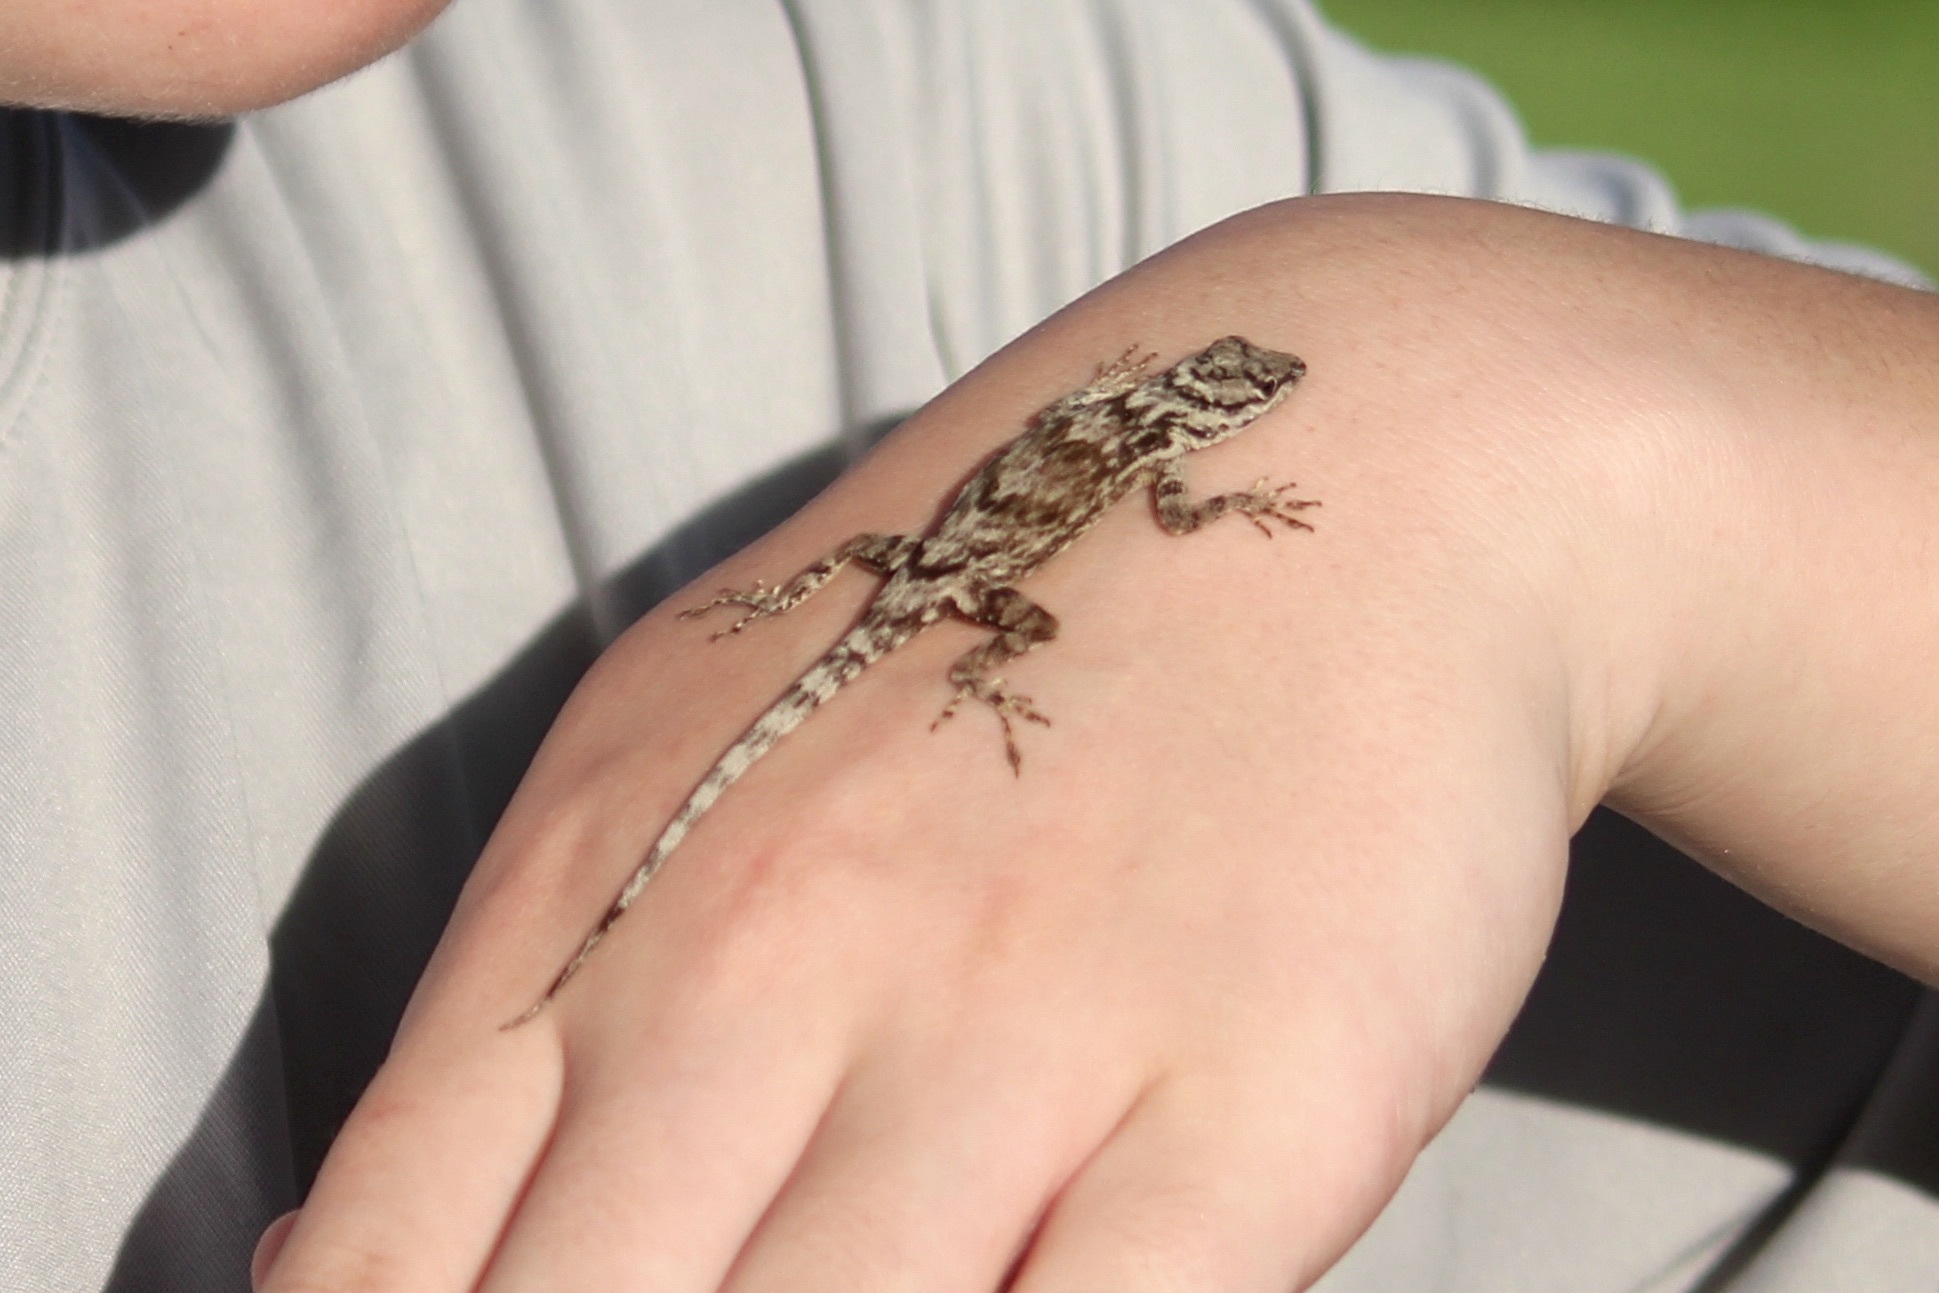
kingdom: Animalia
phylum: Chordata
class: Squamata
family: Dactyloidae
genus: Anolis
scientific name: Anolis distichus
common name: Bark anole
